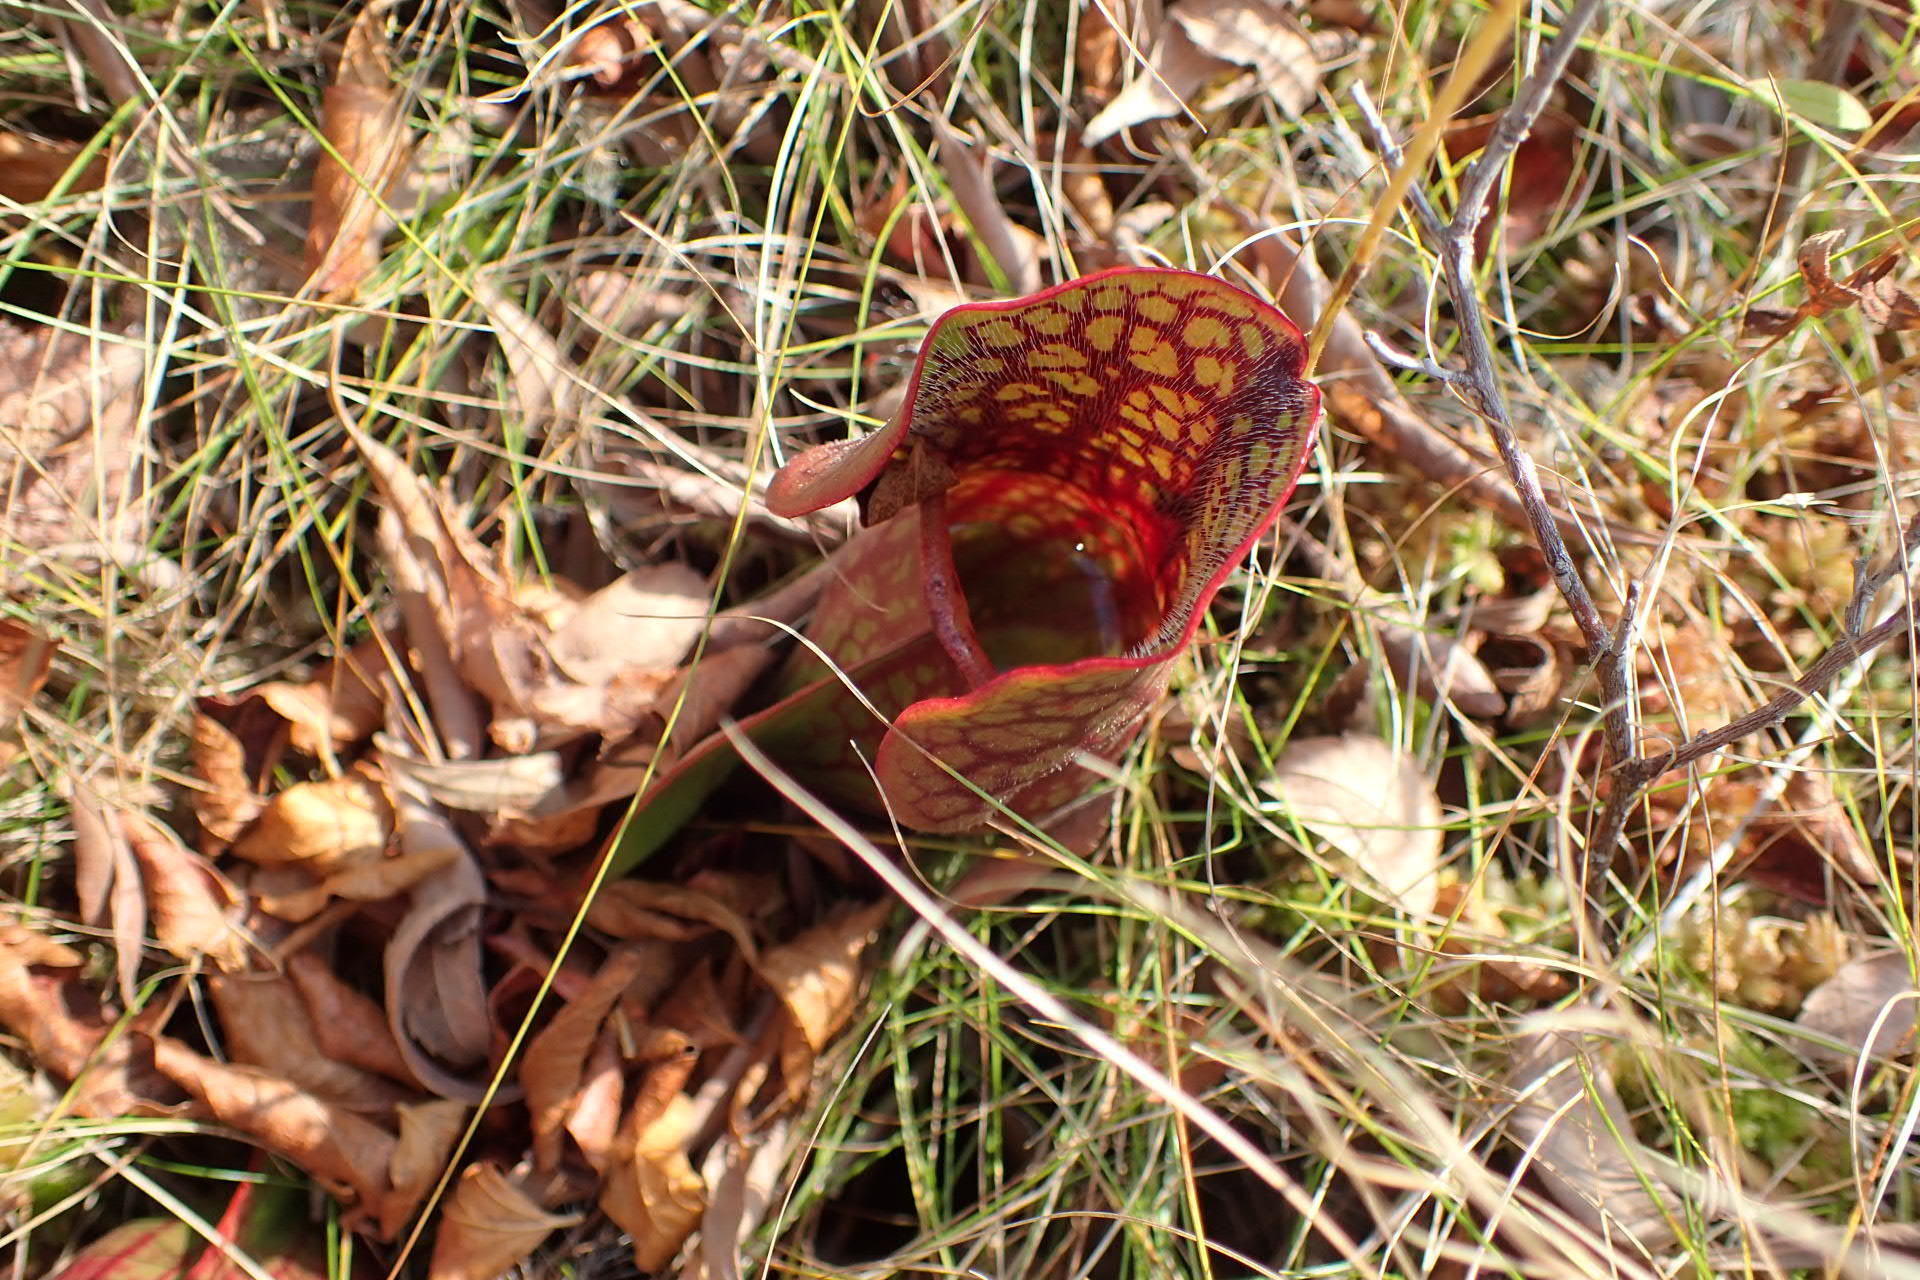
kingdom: Plantae
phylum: Tracheophyta
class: Magnoliopsida
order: Ericales
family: Sarraceniaceae
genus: Sarracenia
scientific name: Sarracenia purpurea
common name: Pitcherplant
